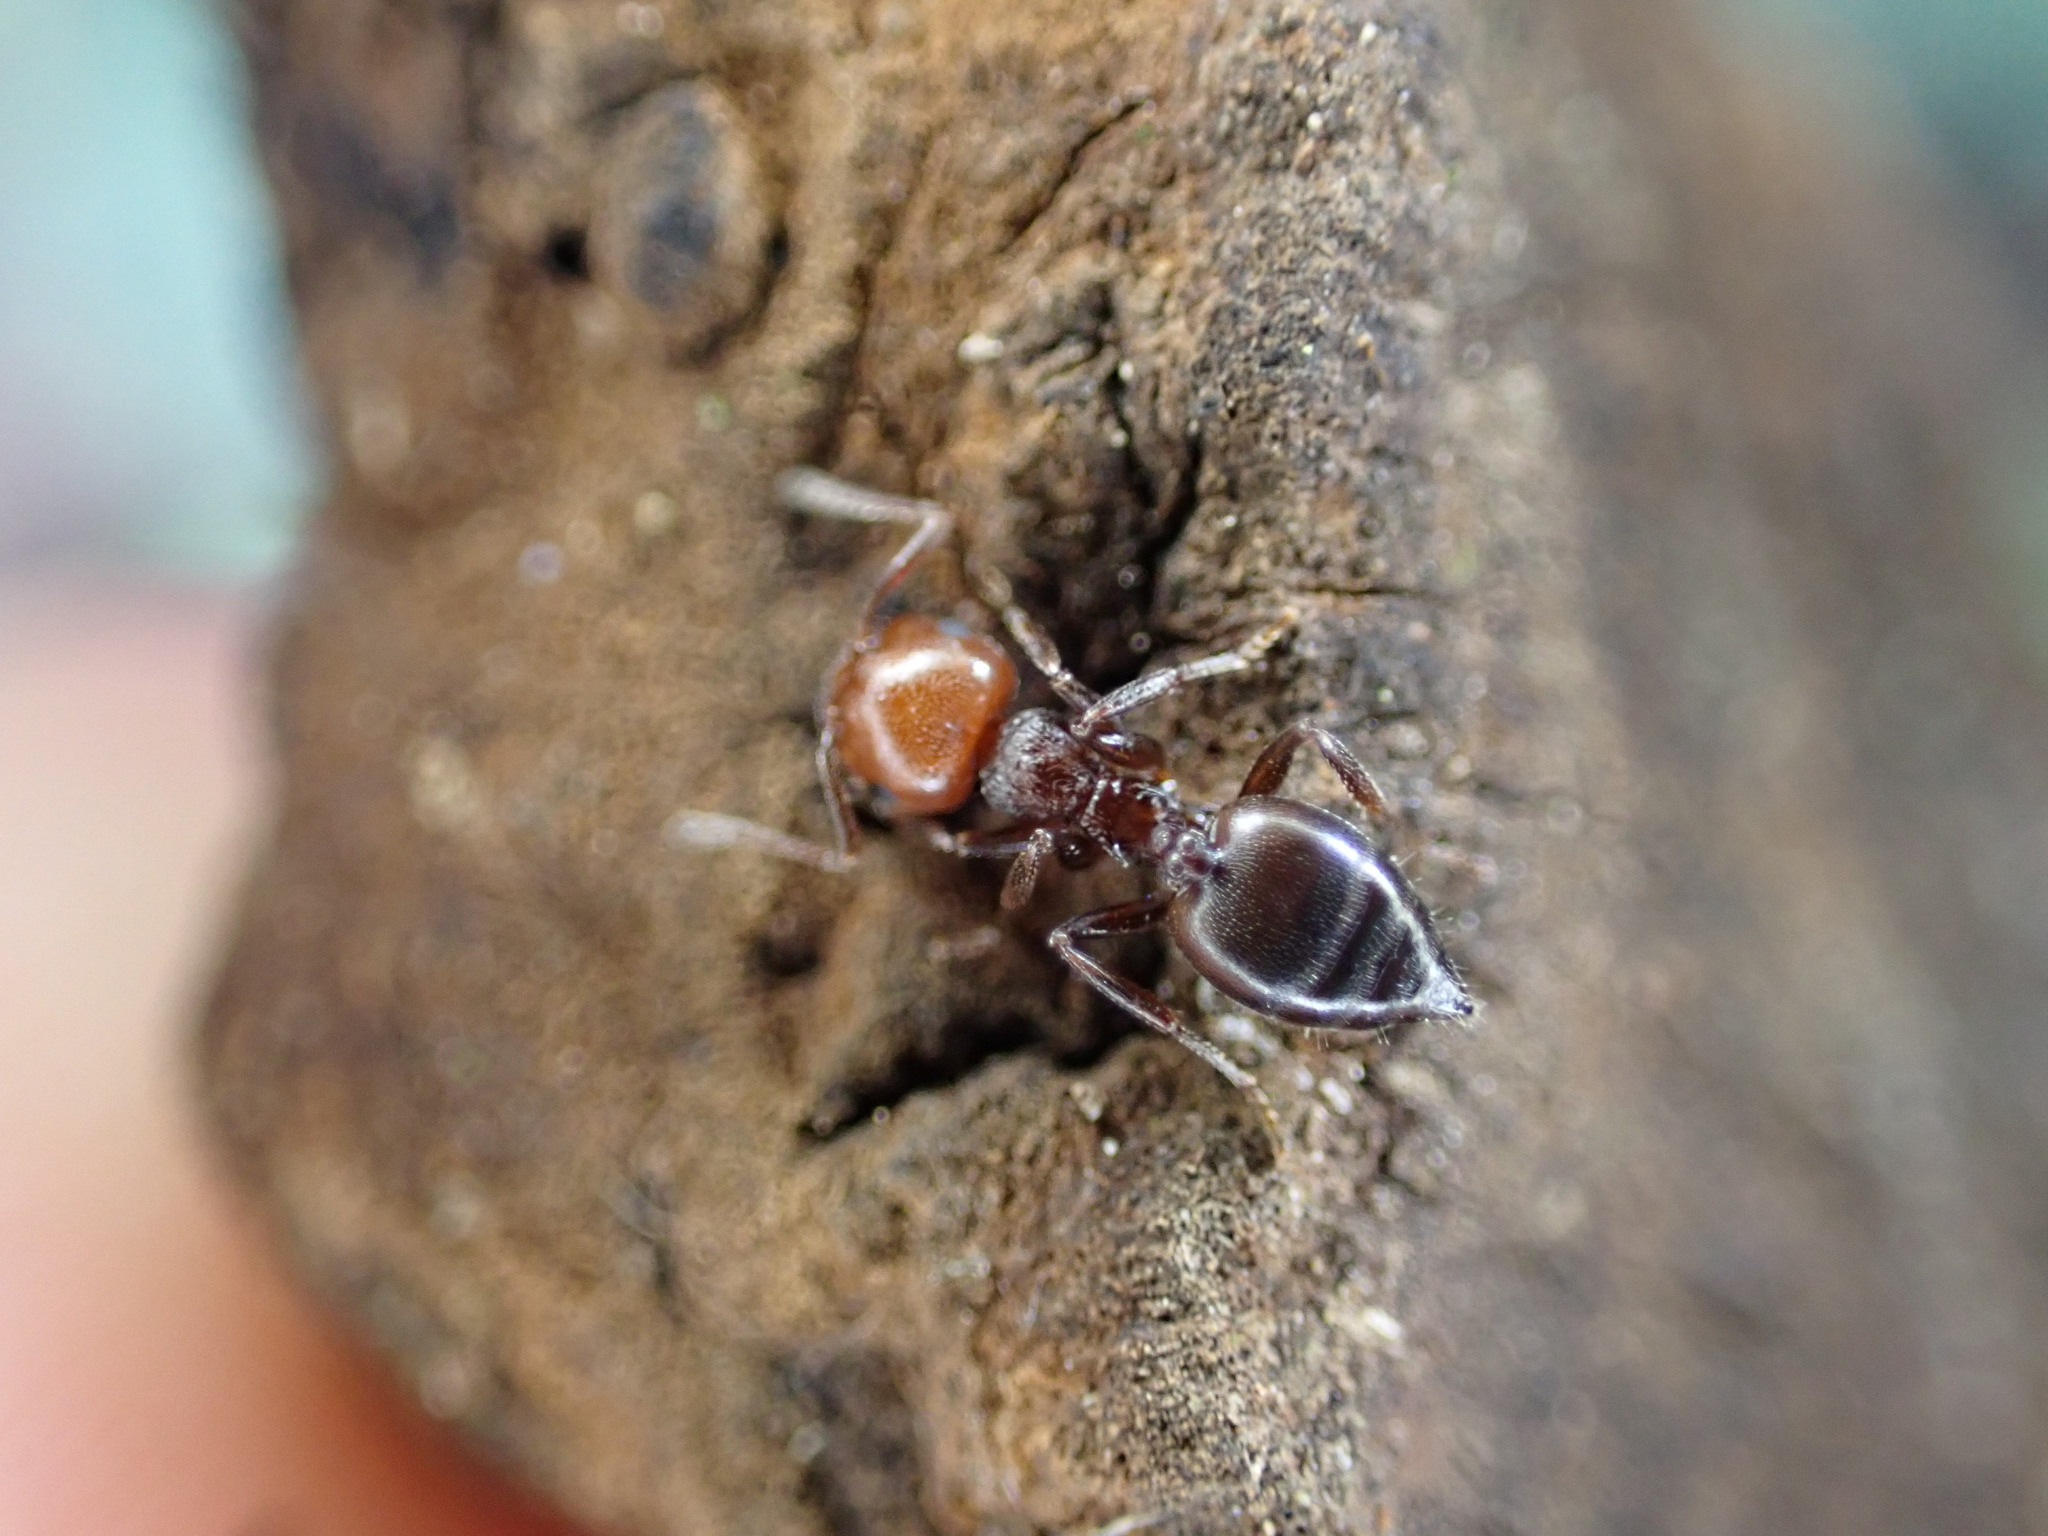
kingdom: Animalia
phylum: Arthropoda
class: Insecta
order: Hymenoptera
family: Formicidae
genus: Crematogaster
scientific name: Crematogaster scutellaris
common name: Fourmi du liège
